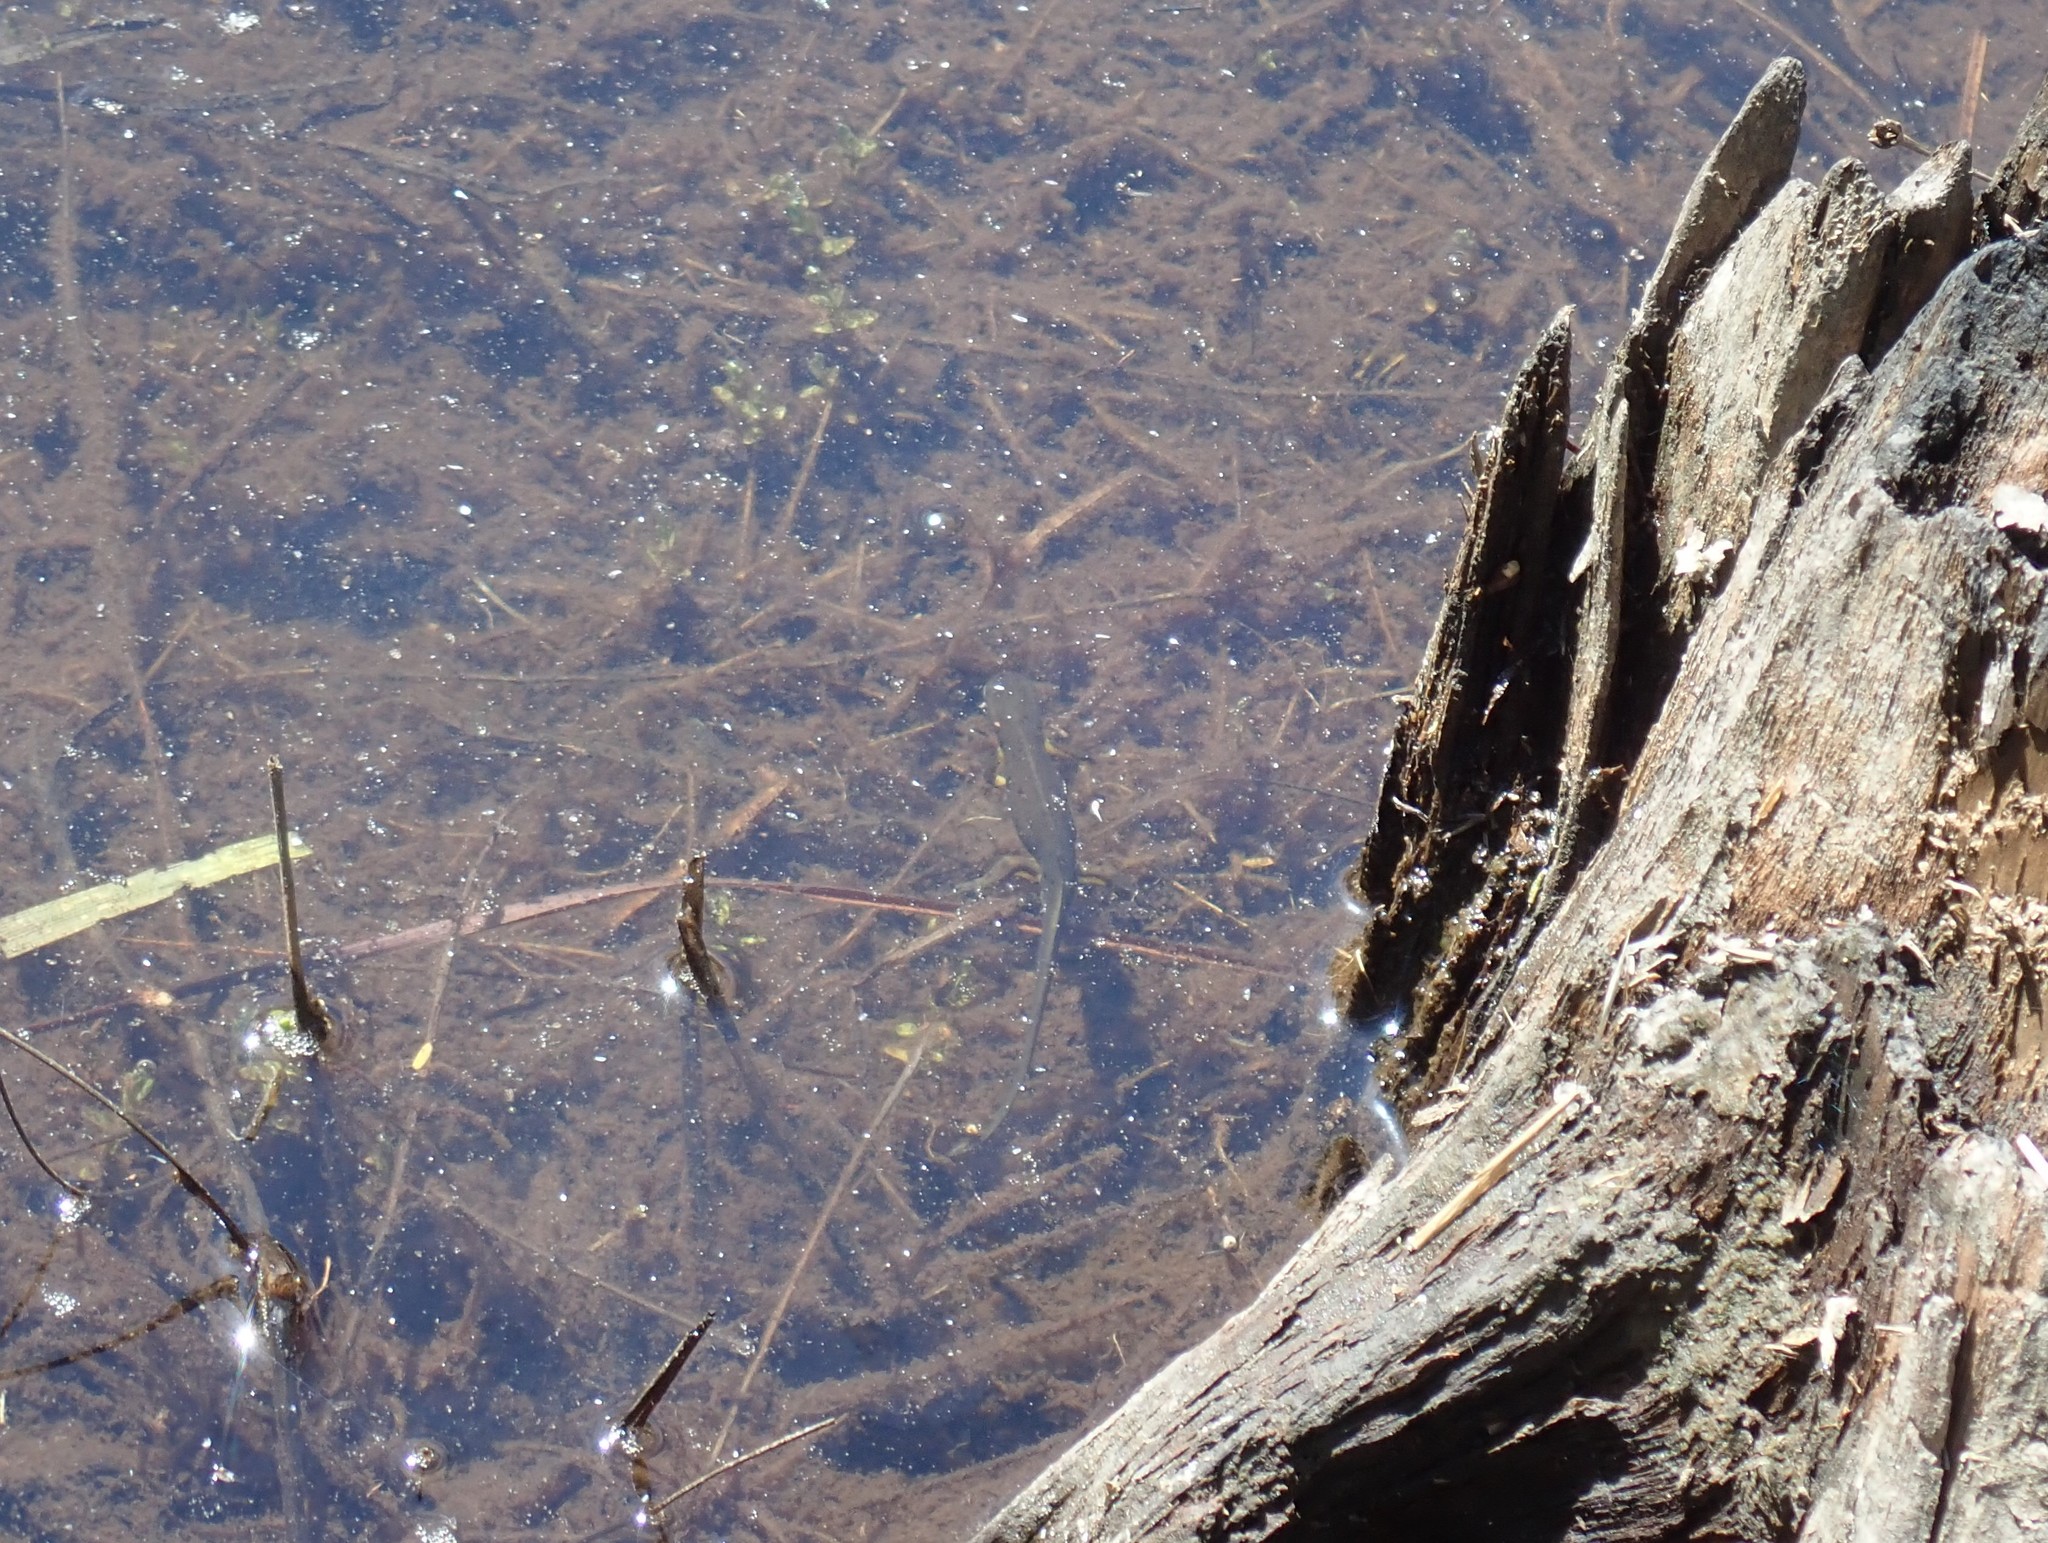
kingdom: Animalia
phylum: Chordata
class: Amphibia
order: Caudata
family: Salamandridae
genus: Notophthalmus
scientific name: Notophthalmus viridescens
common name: Eastern newt
